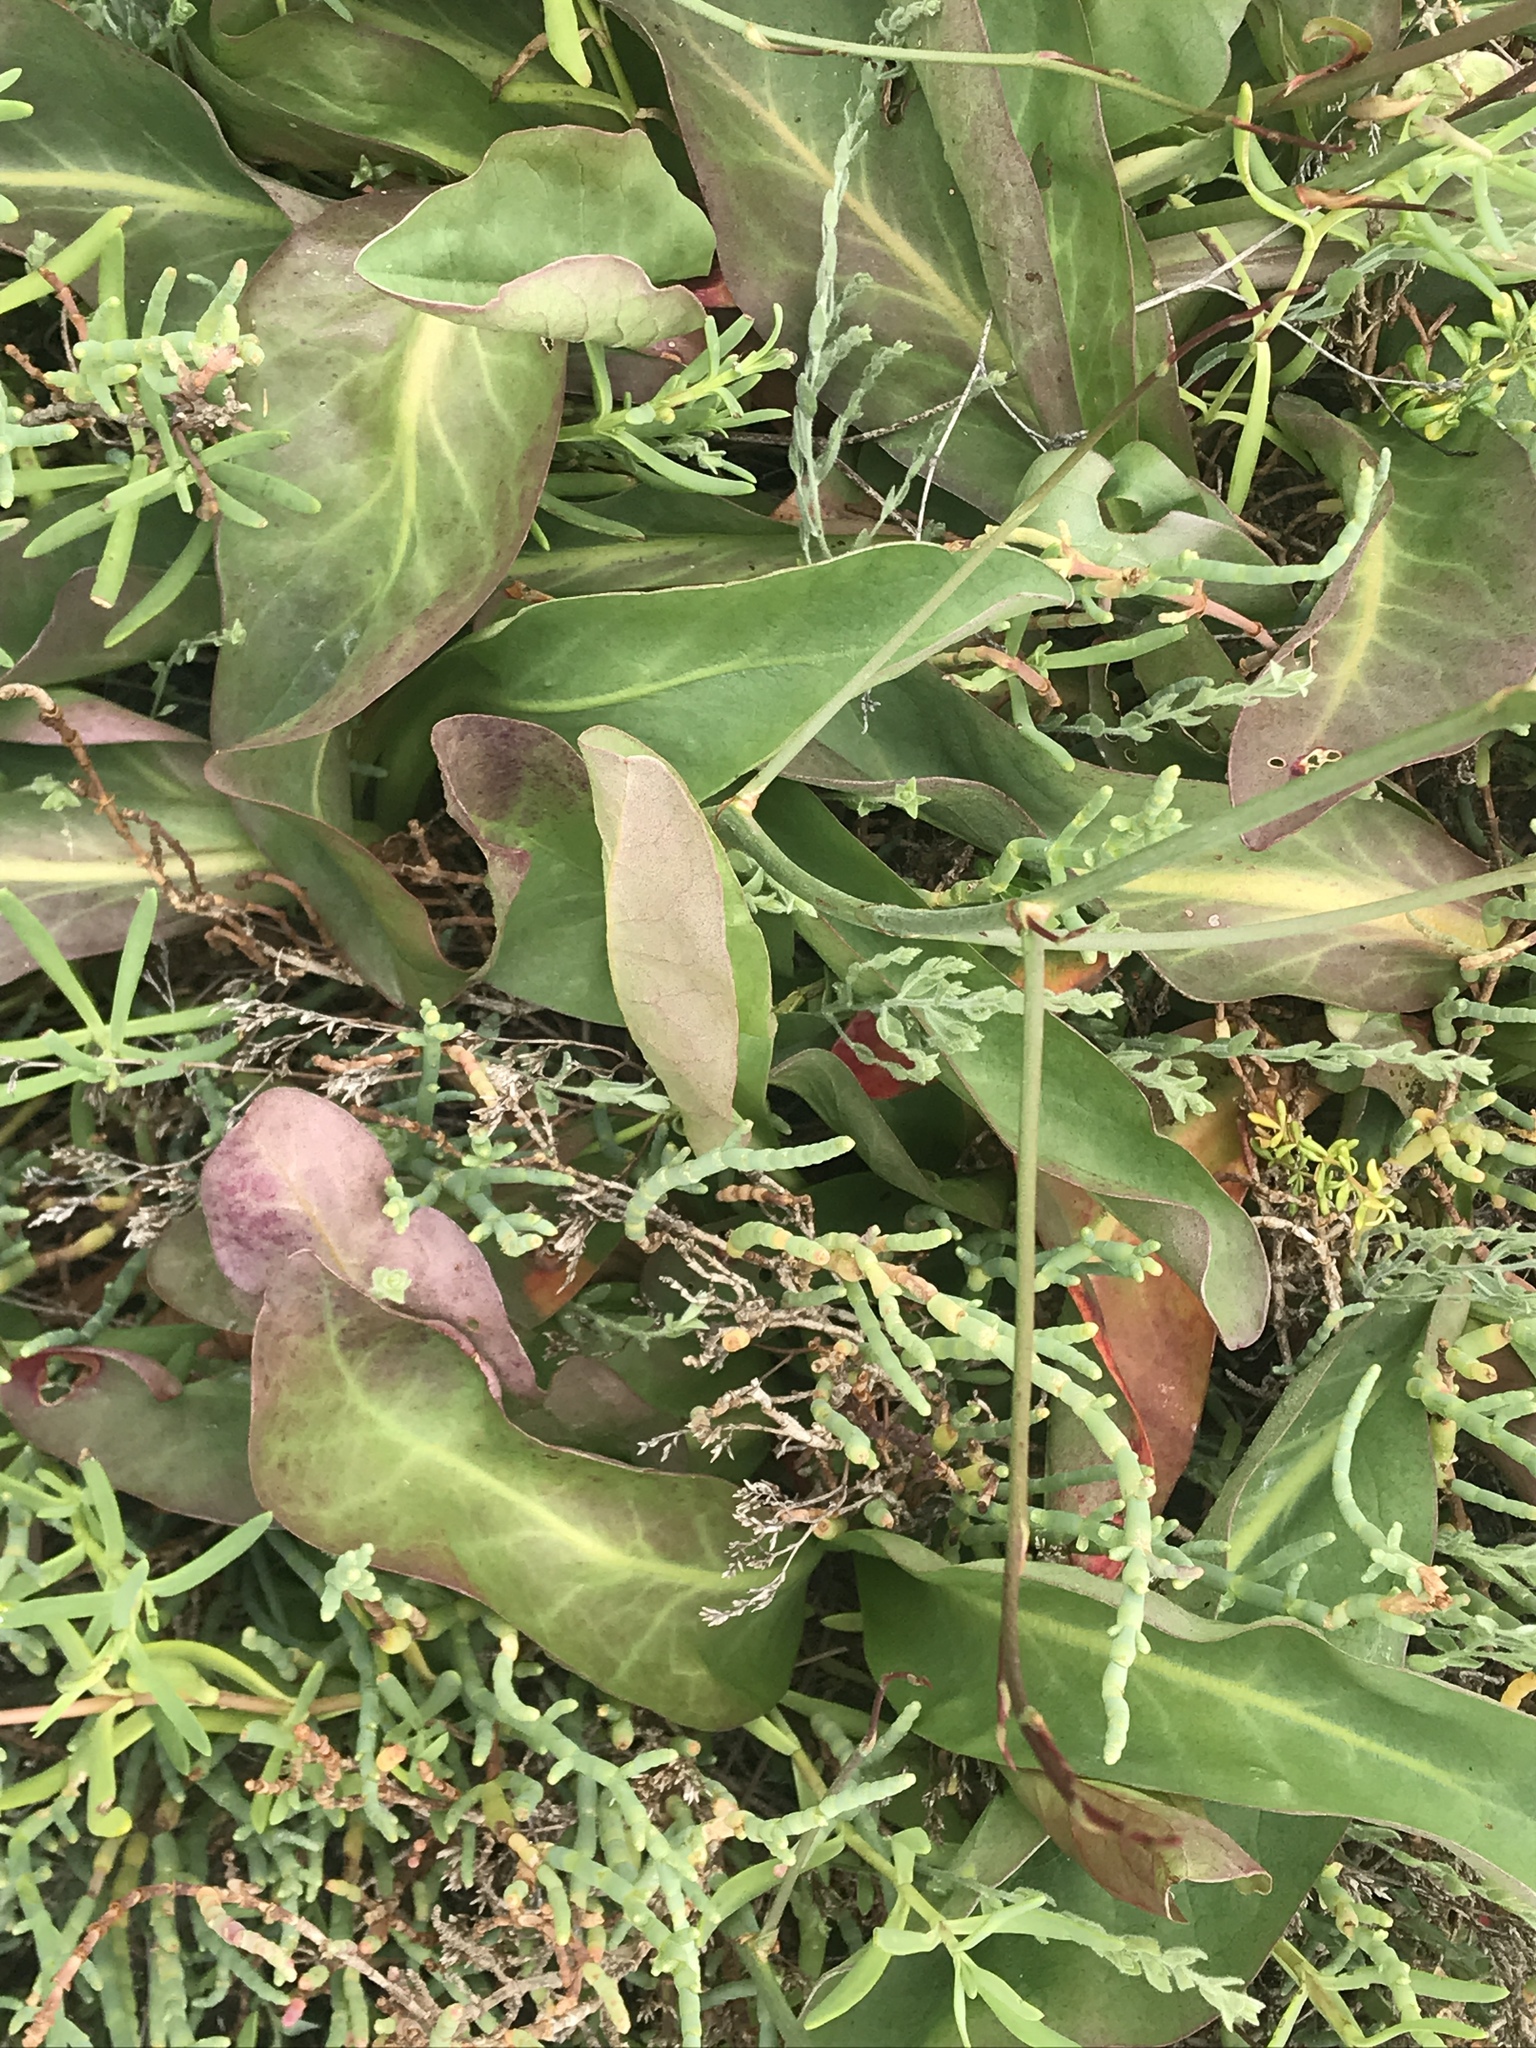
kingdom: Plantae
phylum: Tracheophyta
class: Magnoliopsida
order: Caryophyllales
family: Plumbaginaceae
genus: Limonium
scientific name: Limonium californicum
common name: Marsh-rosemary
